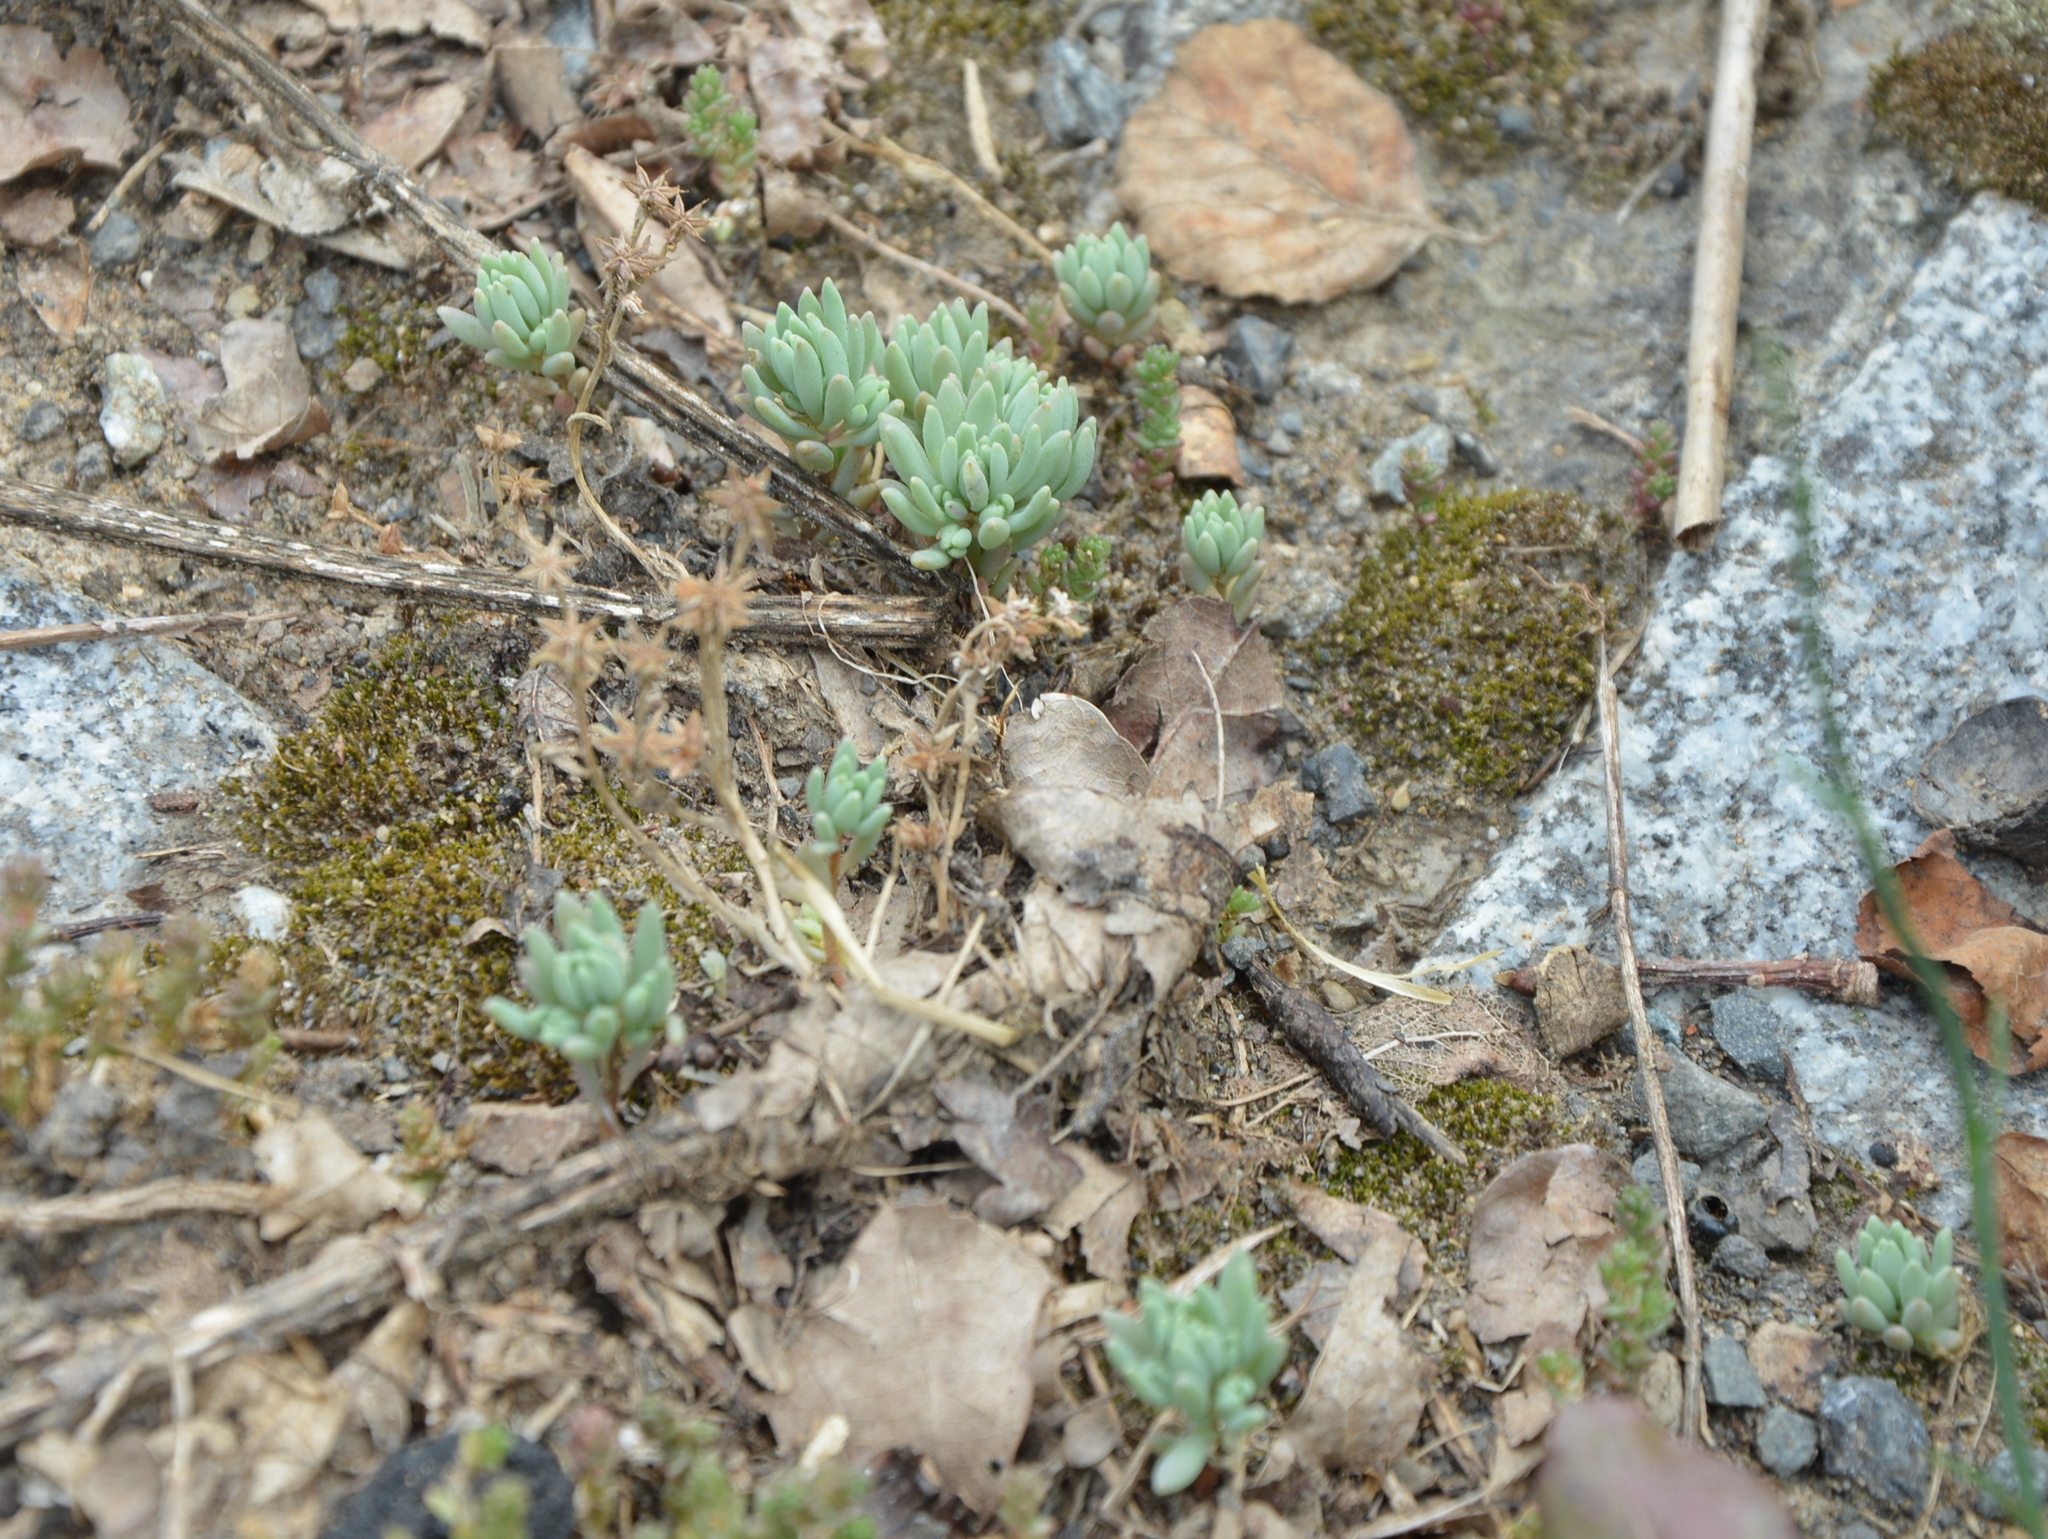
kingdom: Plantae
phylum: Tracheophyta
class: Magnoliopsida
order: Saxifragales
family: Crassulaceae
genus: Sedum
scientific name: Sedum hispanicum
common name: Spanish stonecrop
